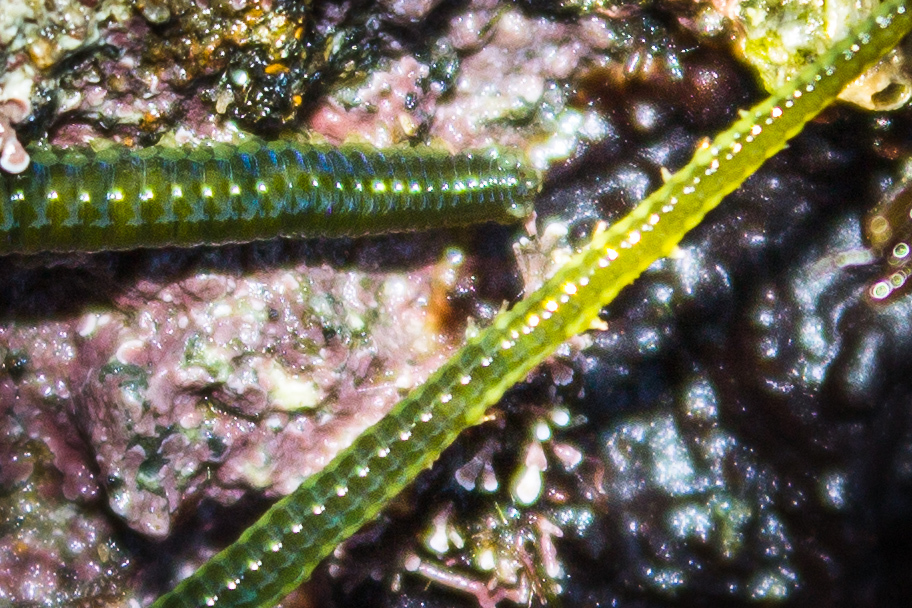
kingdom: Animalia
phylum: Annelida
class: Polychaeta
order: Phyllodocida
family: Phyllodocidae
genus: Eulalia
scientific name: Eulalia microphylla
